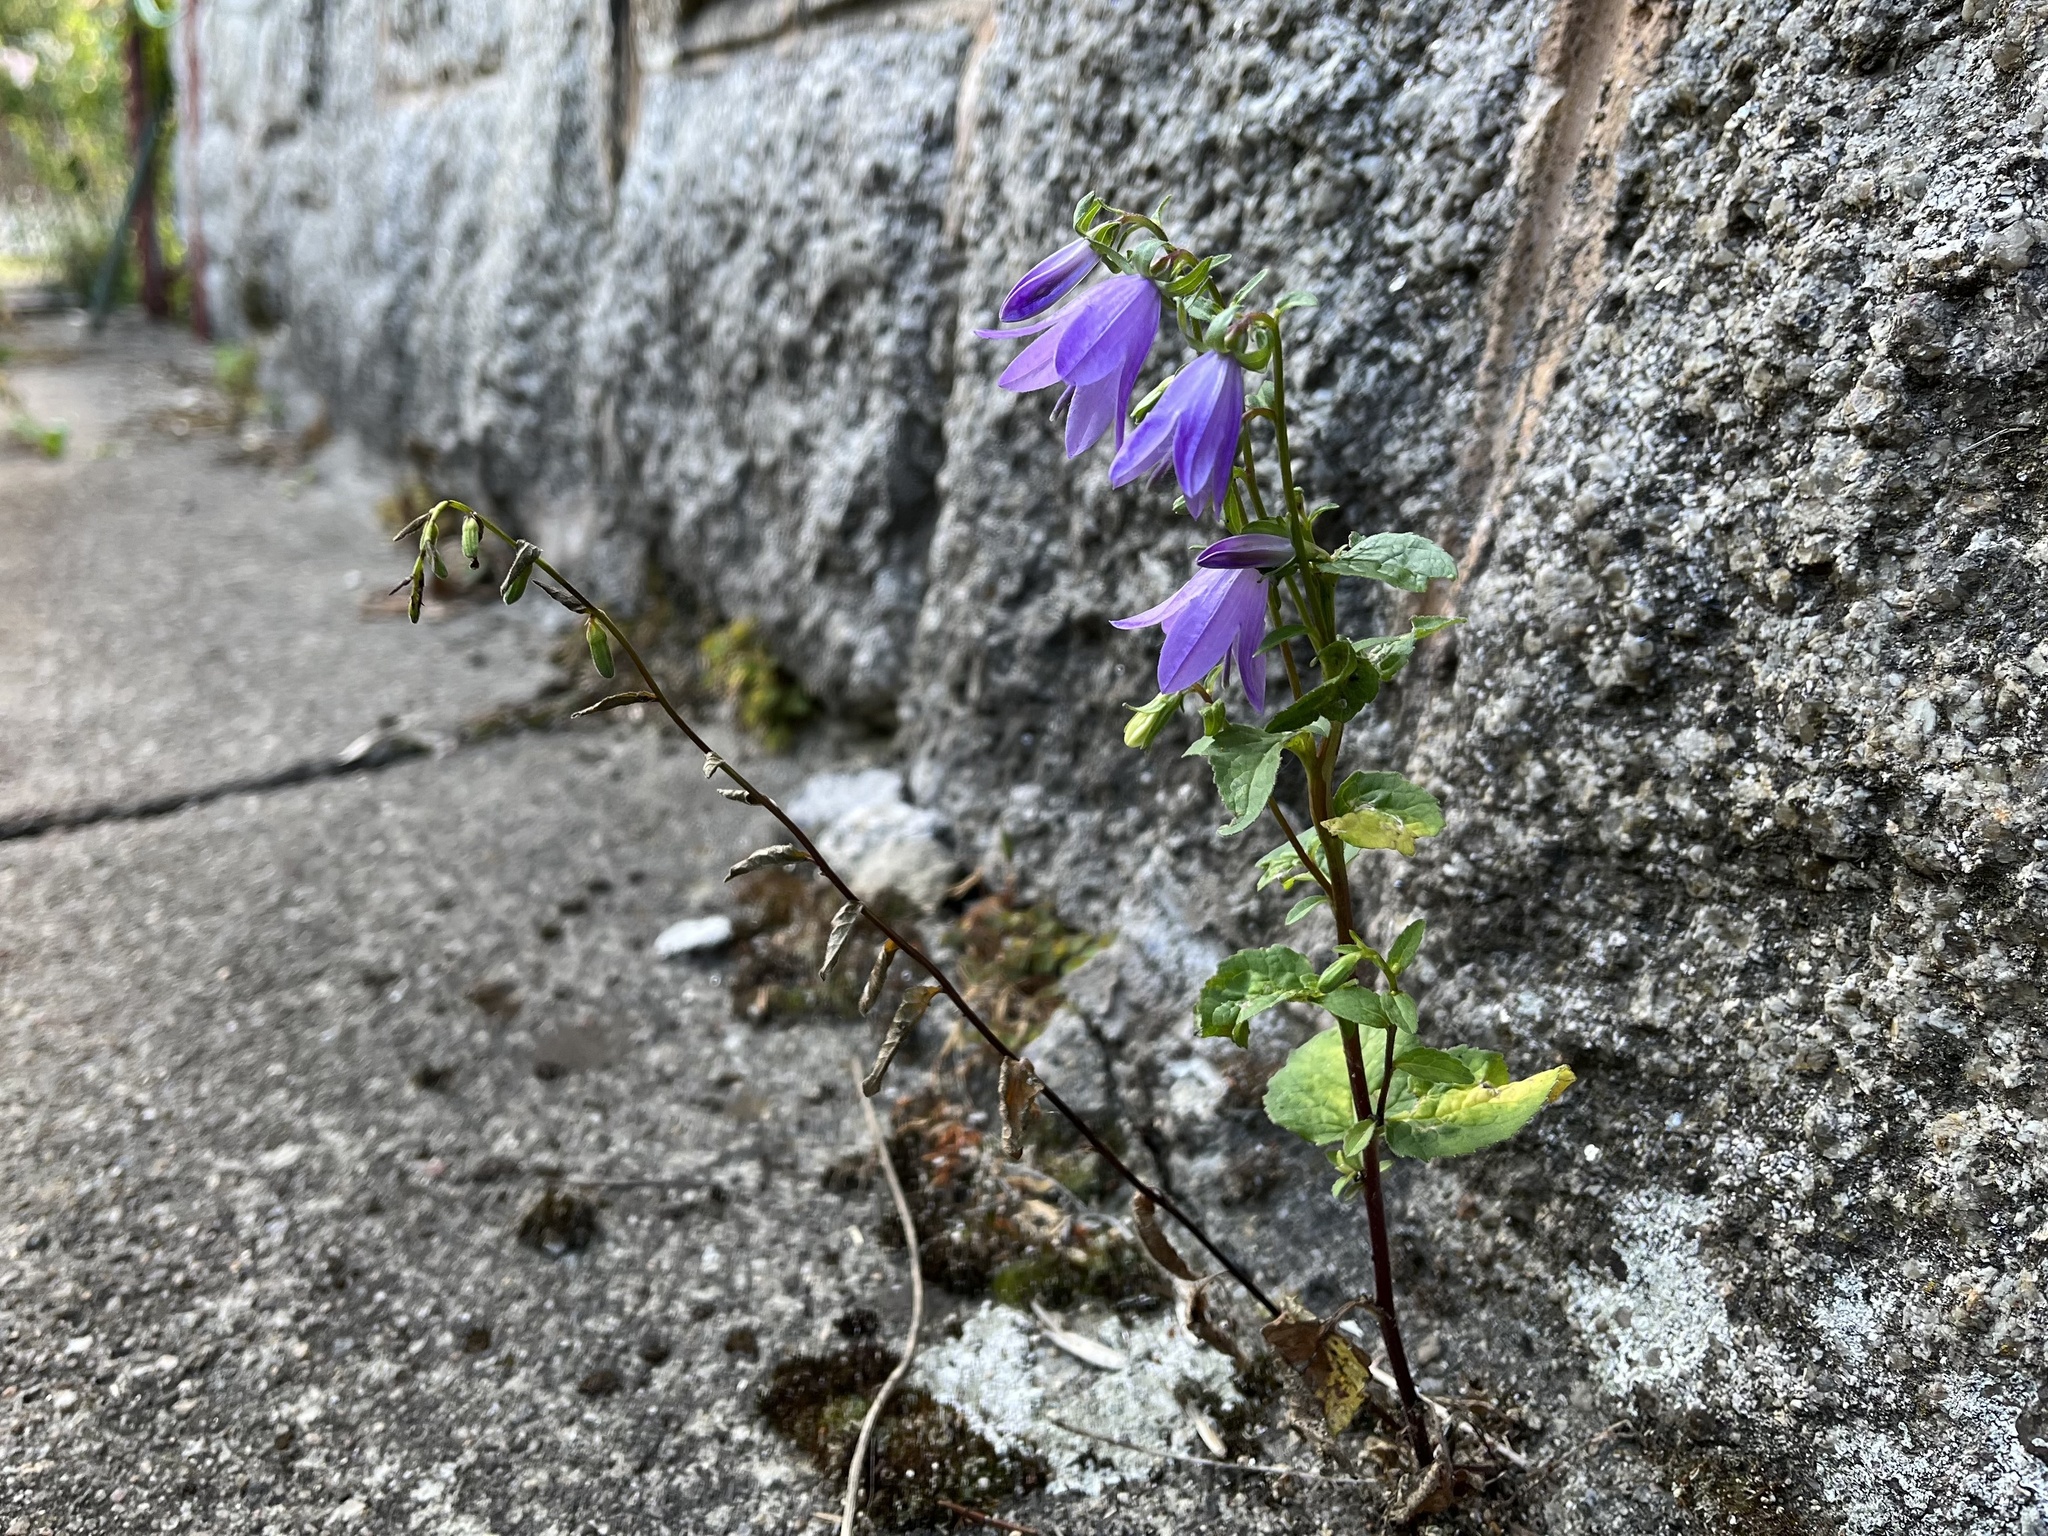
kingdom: Plantae
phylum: Tracheophyta
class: Magnoliopsida
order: Asterales
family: Campanulaceae
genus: Campanula
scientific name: Campanula rapunculoides
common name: Creeping bellflower
